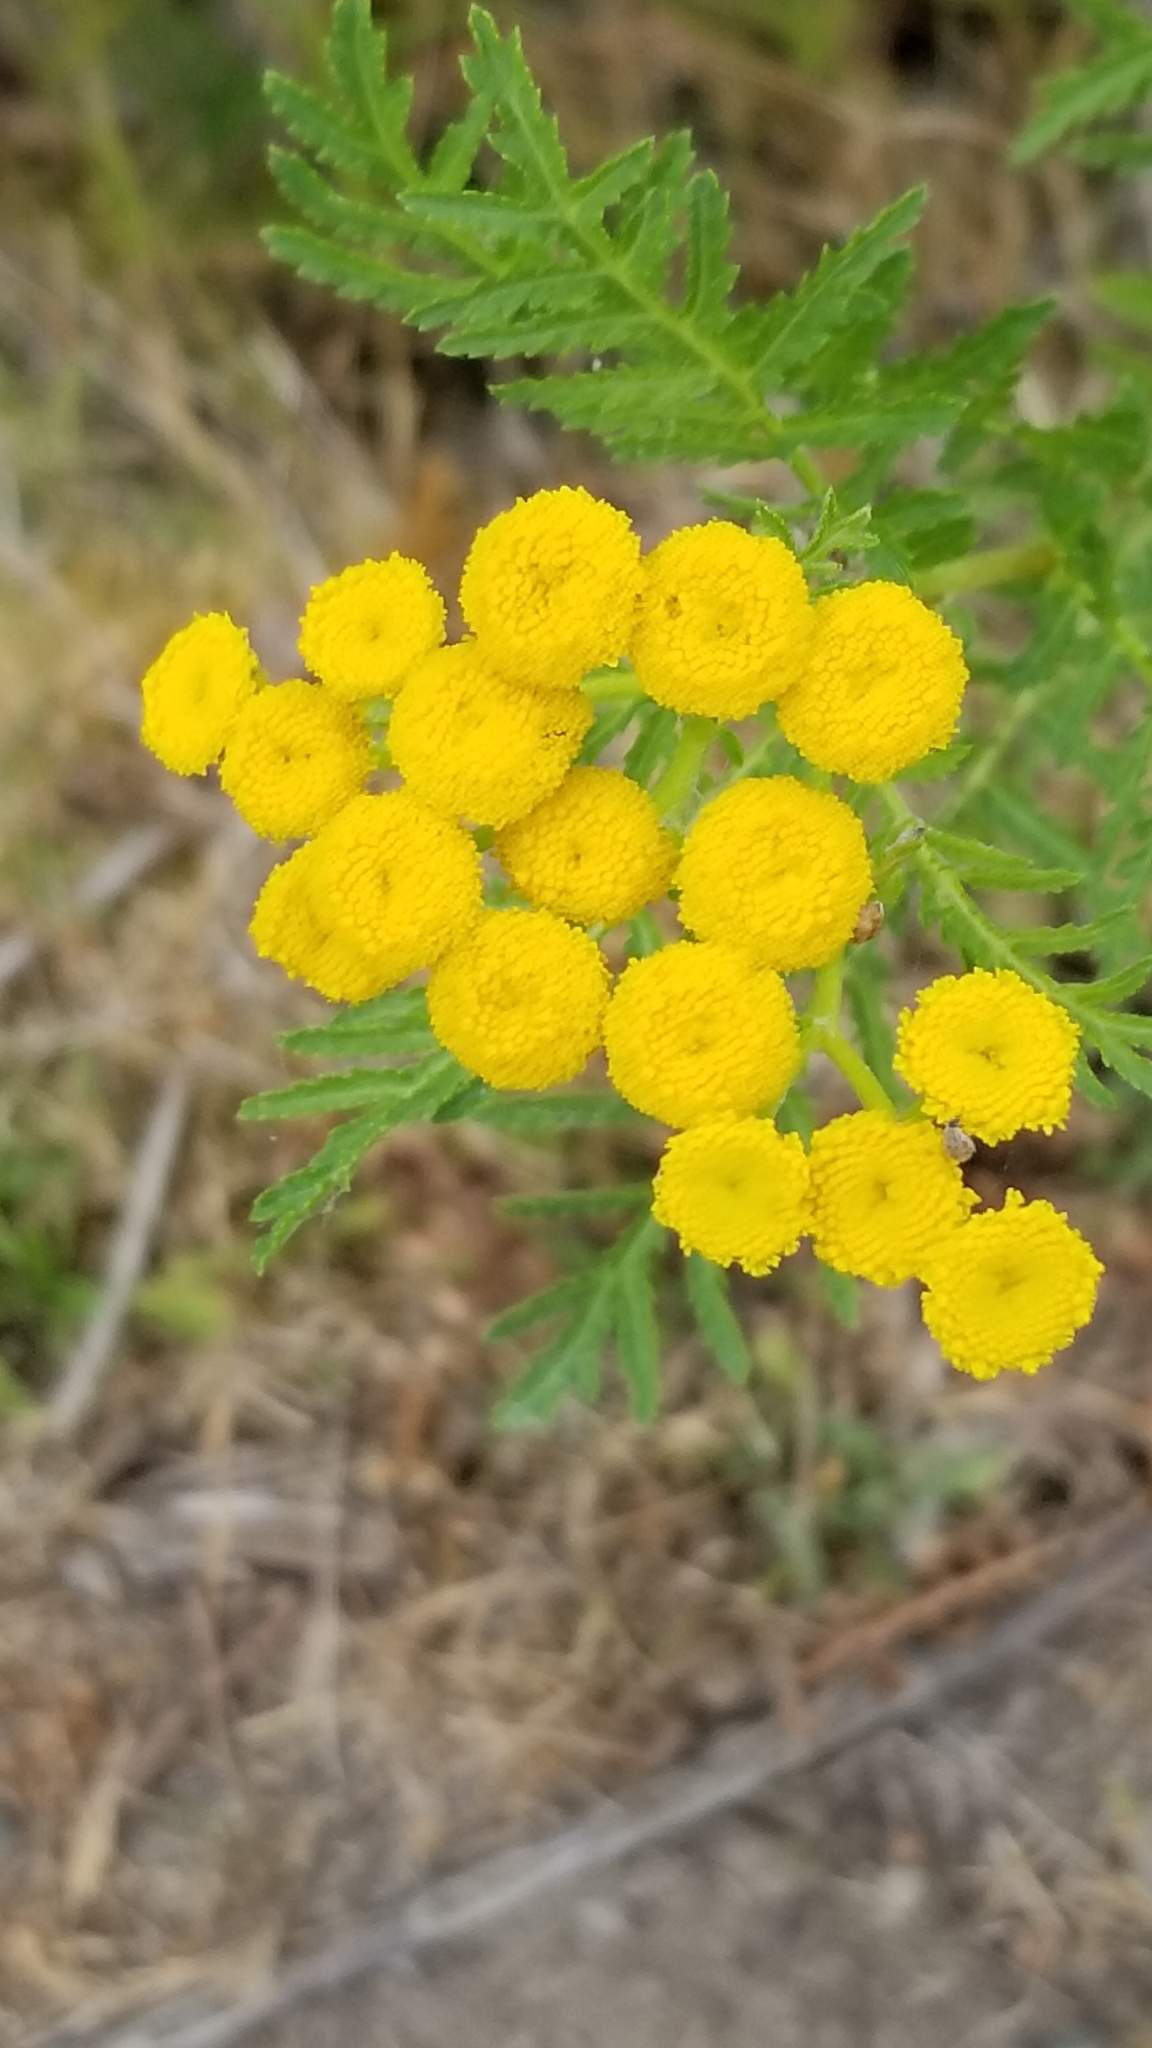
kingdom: Plantae
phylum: Tracheophyta
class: Magnoliopsida
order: Asterales
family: Asteraceae
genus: Tanacetum
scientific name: Tanacetum vulgare
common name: Common tansy
